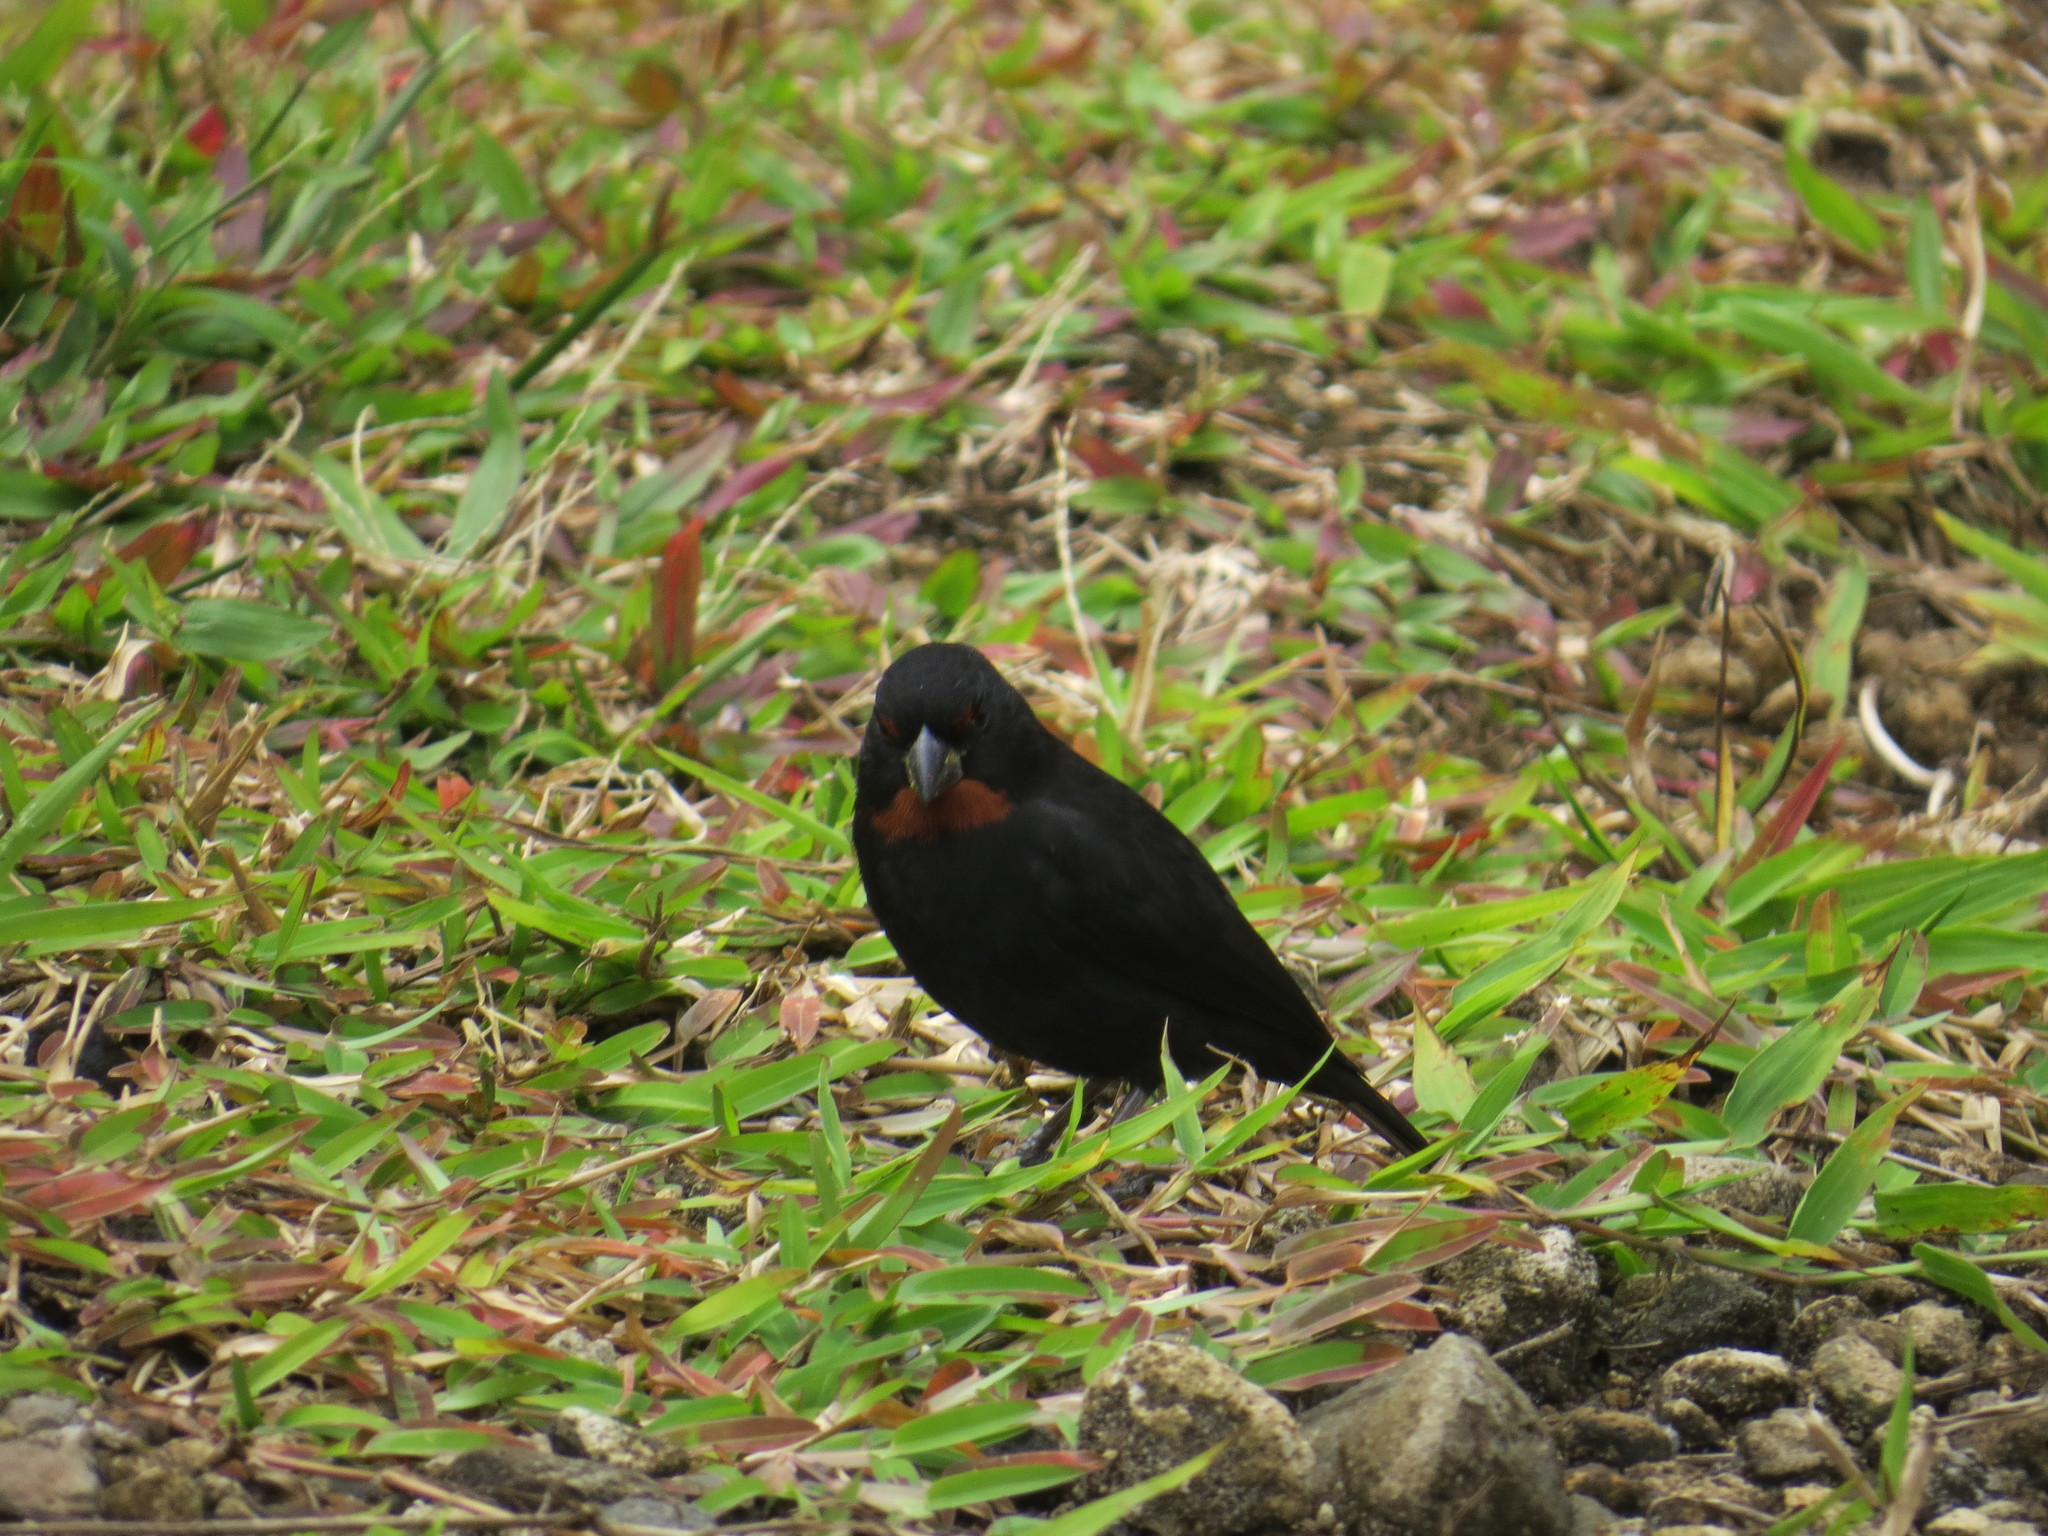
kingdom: Animalia
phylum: Chordata
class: Aves
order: Passeriformes
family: Thraupidae
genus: Loxigilla
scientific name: Loxigilla noctis
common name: Lesser antillean bullfinch
